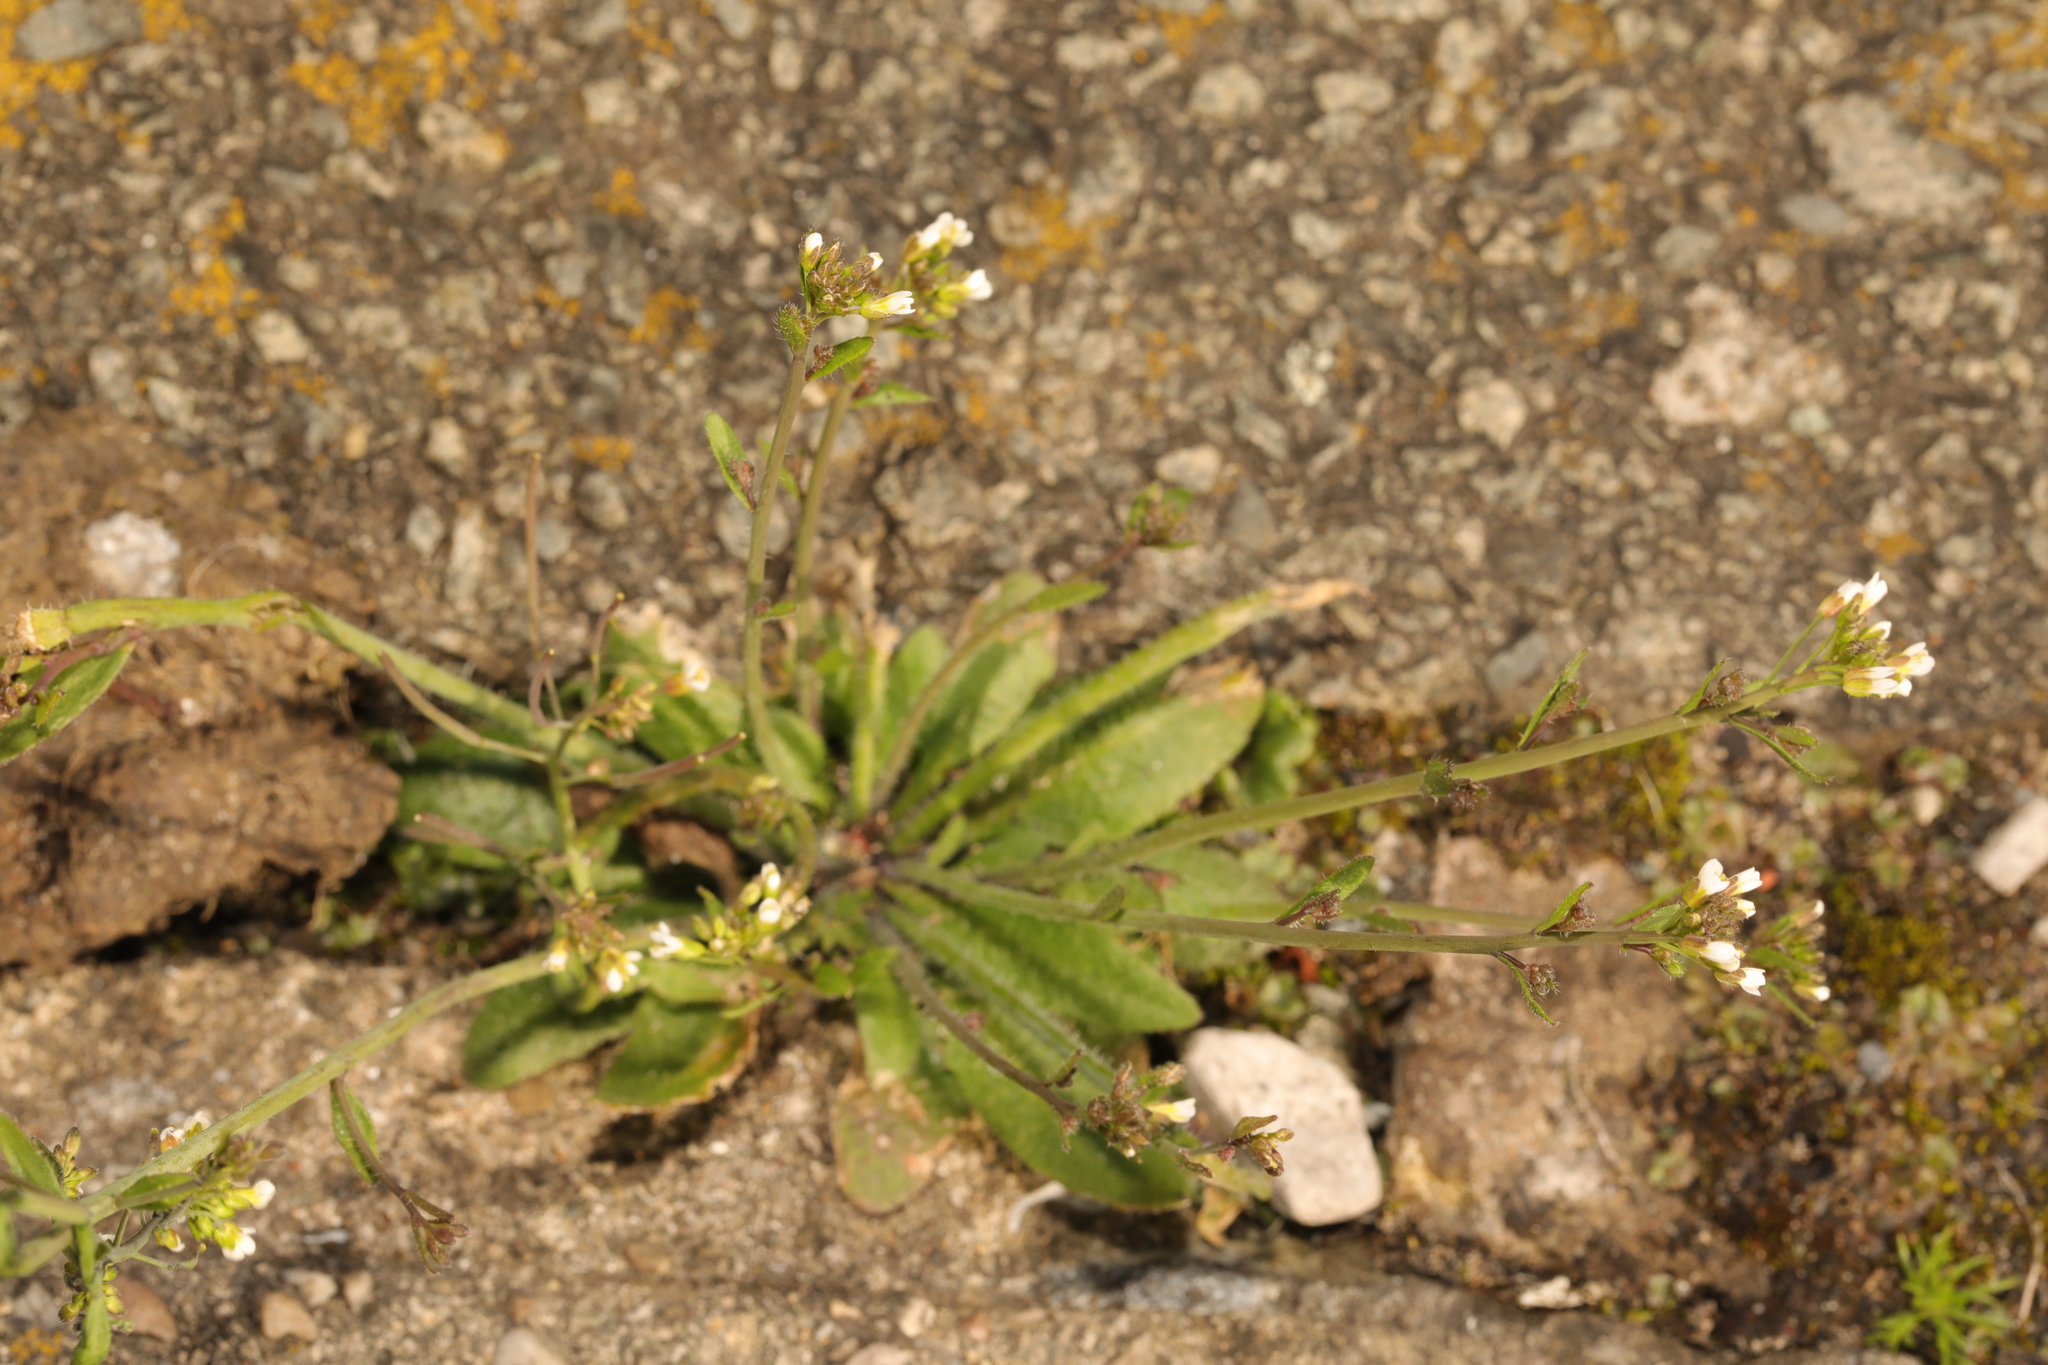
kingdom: Plantae
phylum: Tracheophyta
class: Magnoliopsida
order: Brassicales
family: Brassicaceae
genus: Arabidopsis
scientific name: Arabidopsis thaliana
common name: Thale cress
